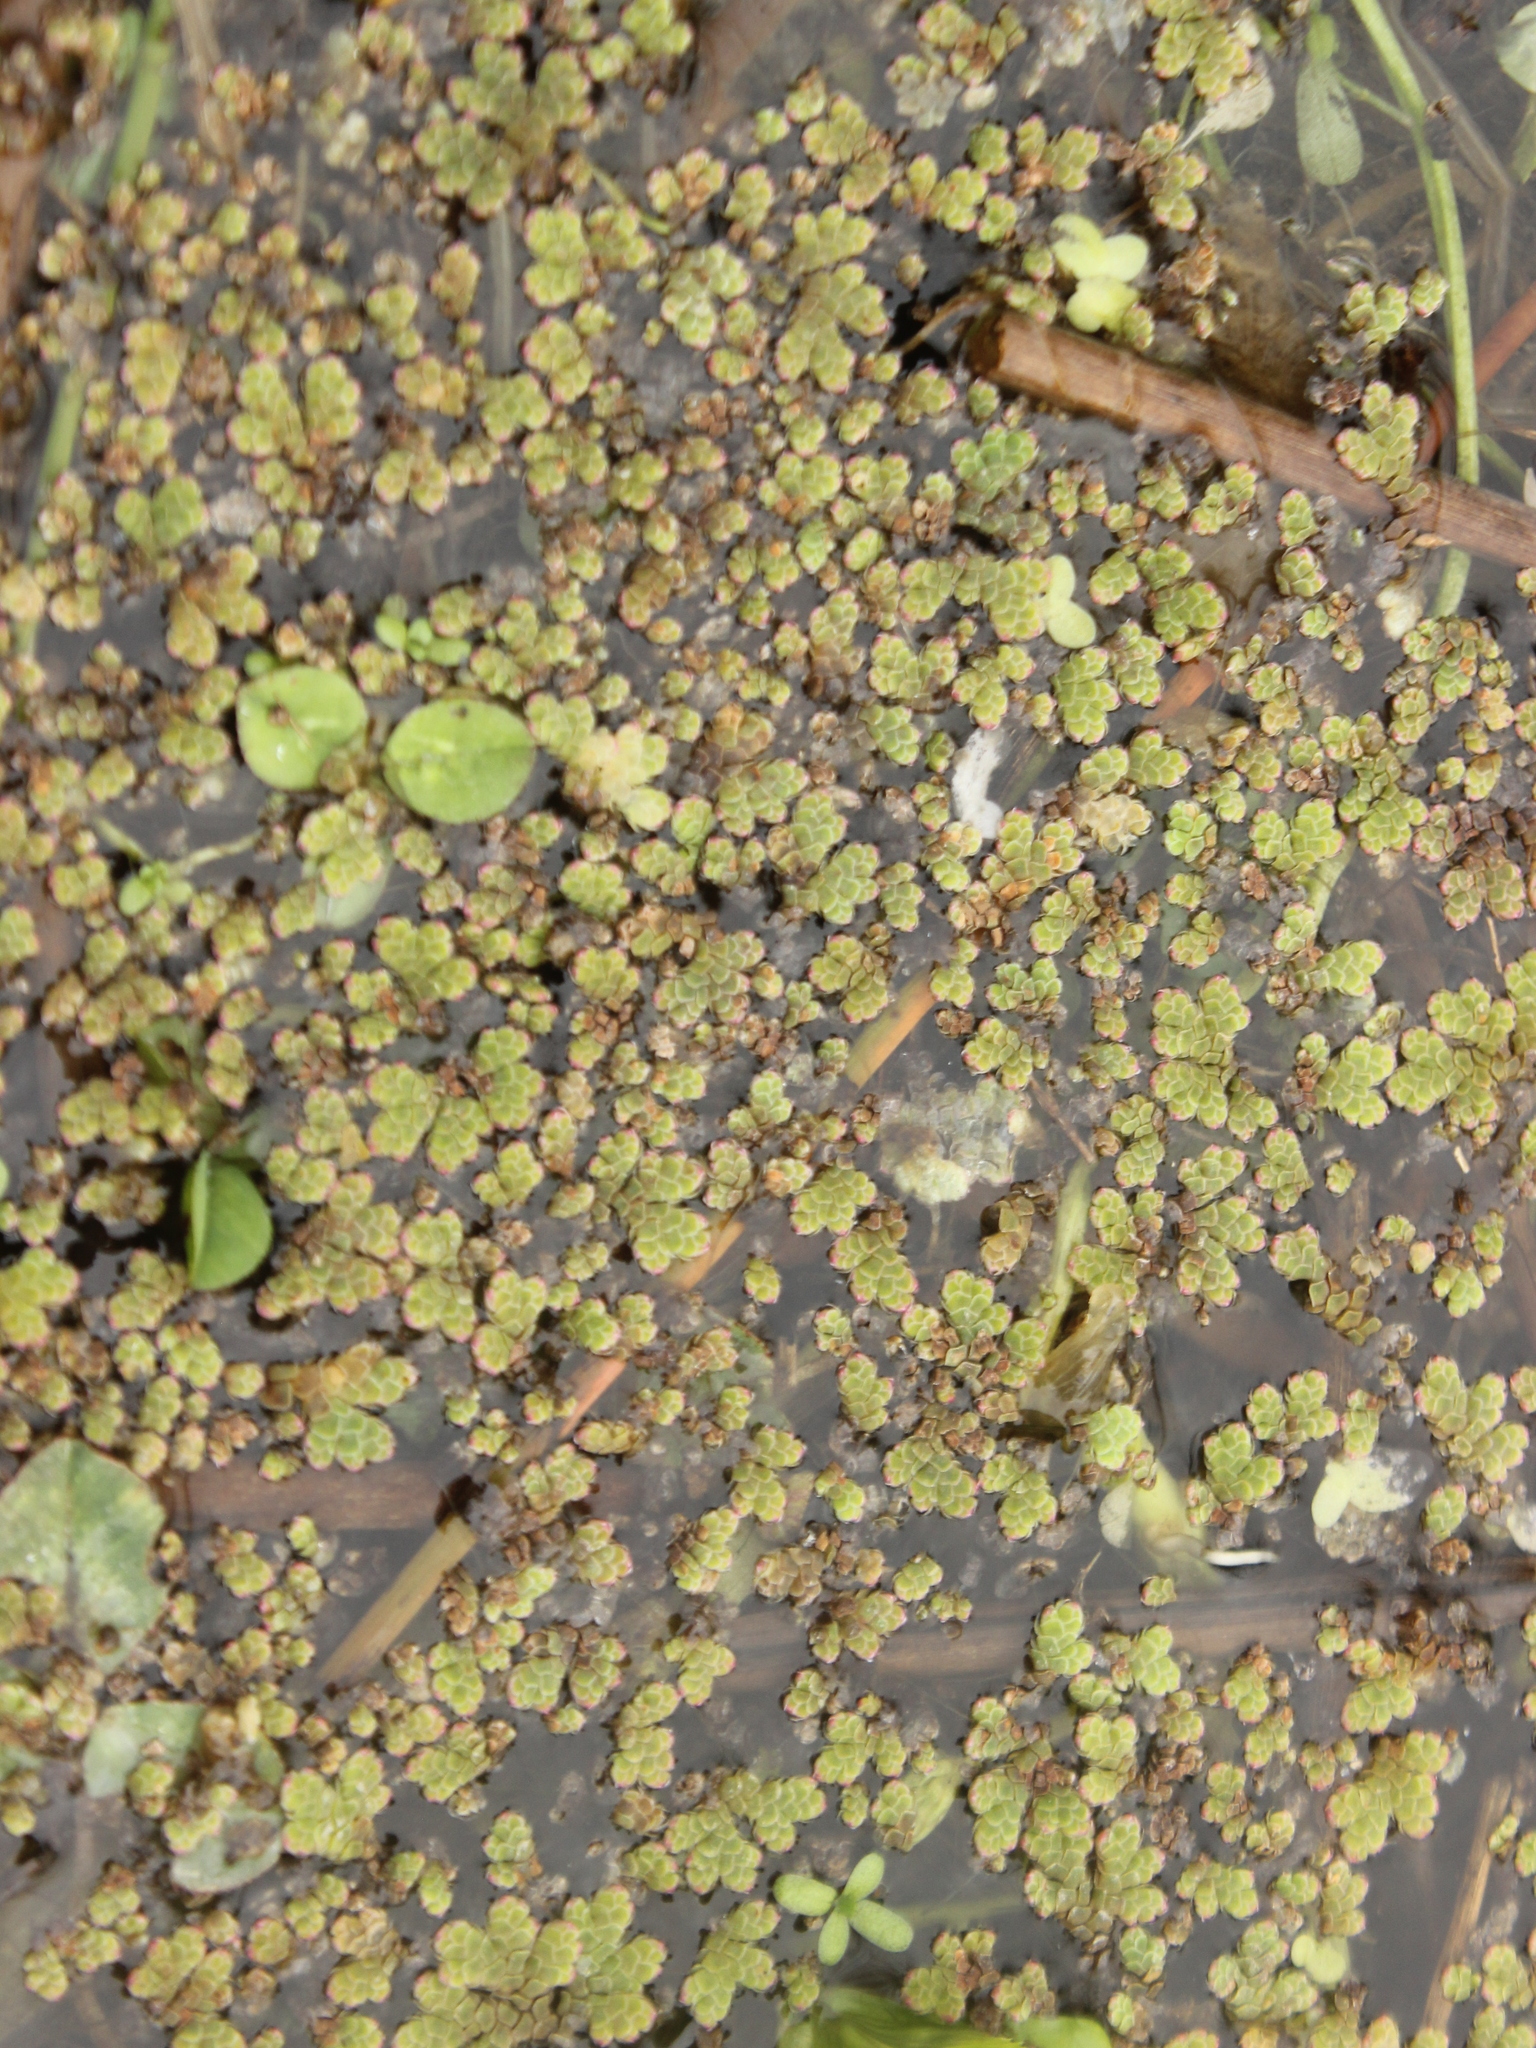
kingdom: Plantae
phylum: Tracheophyta
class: Polypodiopsida
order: Salviniales
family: Salviniaceae
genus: Azolla
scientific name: Azolla rubra
